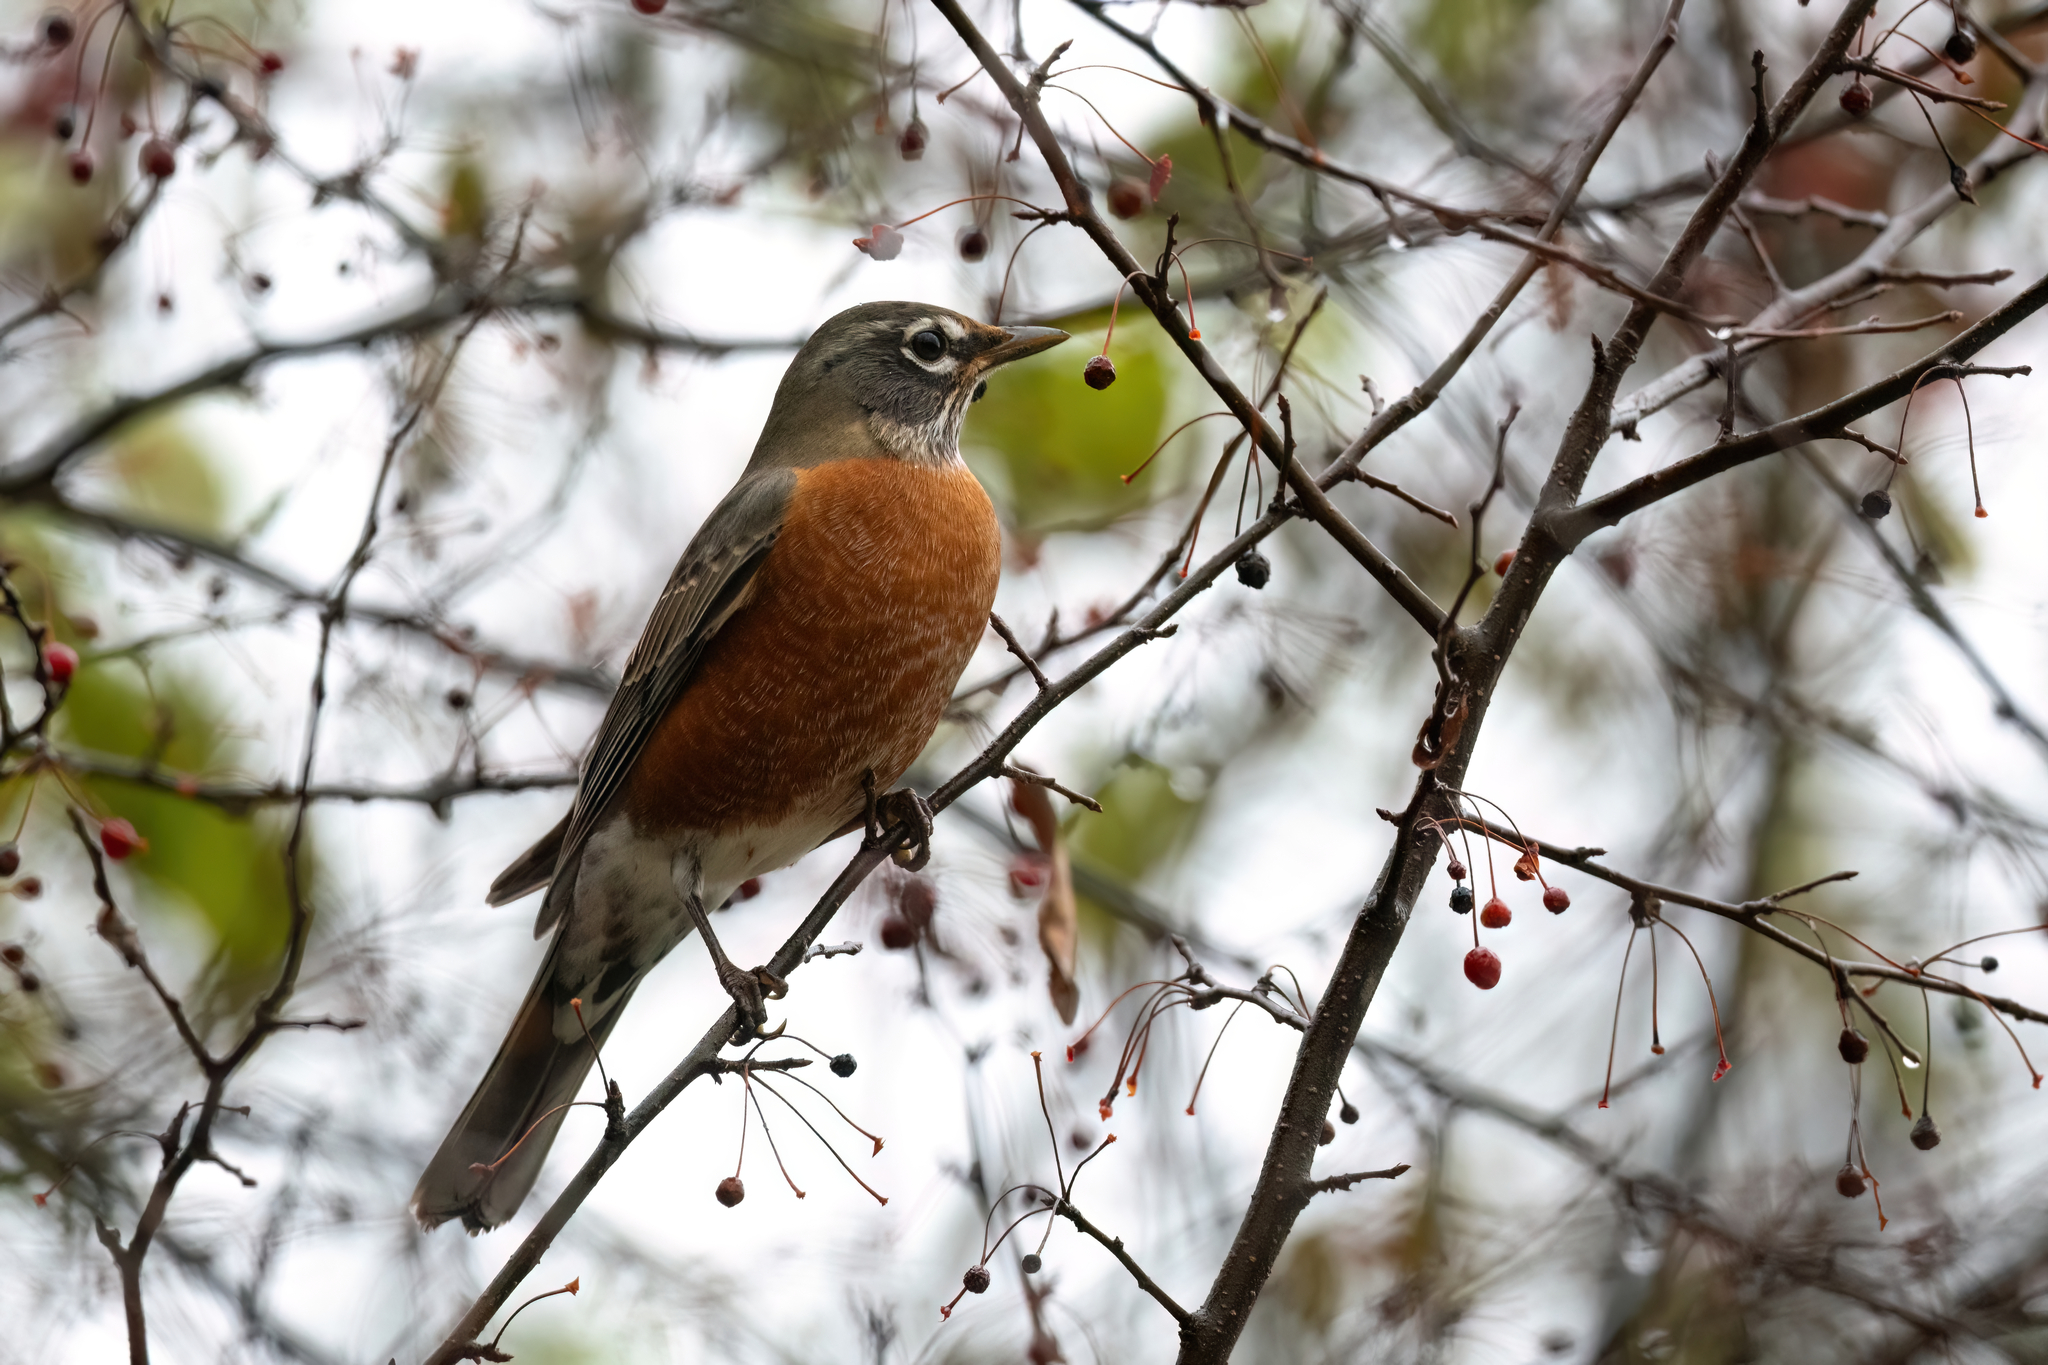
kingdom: Animalia
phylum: Chordata
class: Aves
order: Passeriformes
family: Turdidae
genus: Turdus
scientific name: Turdus migratorius
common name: American robin
